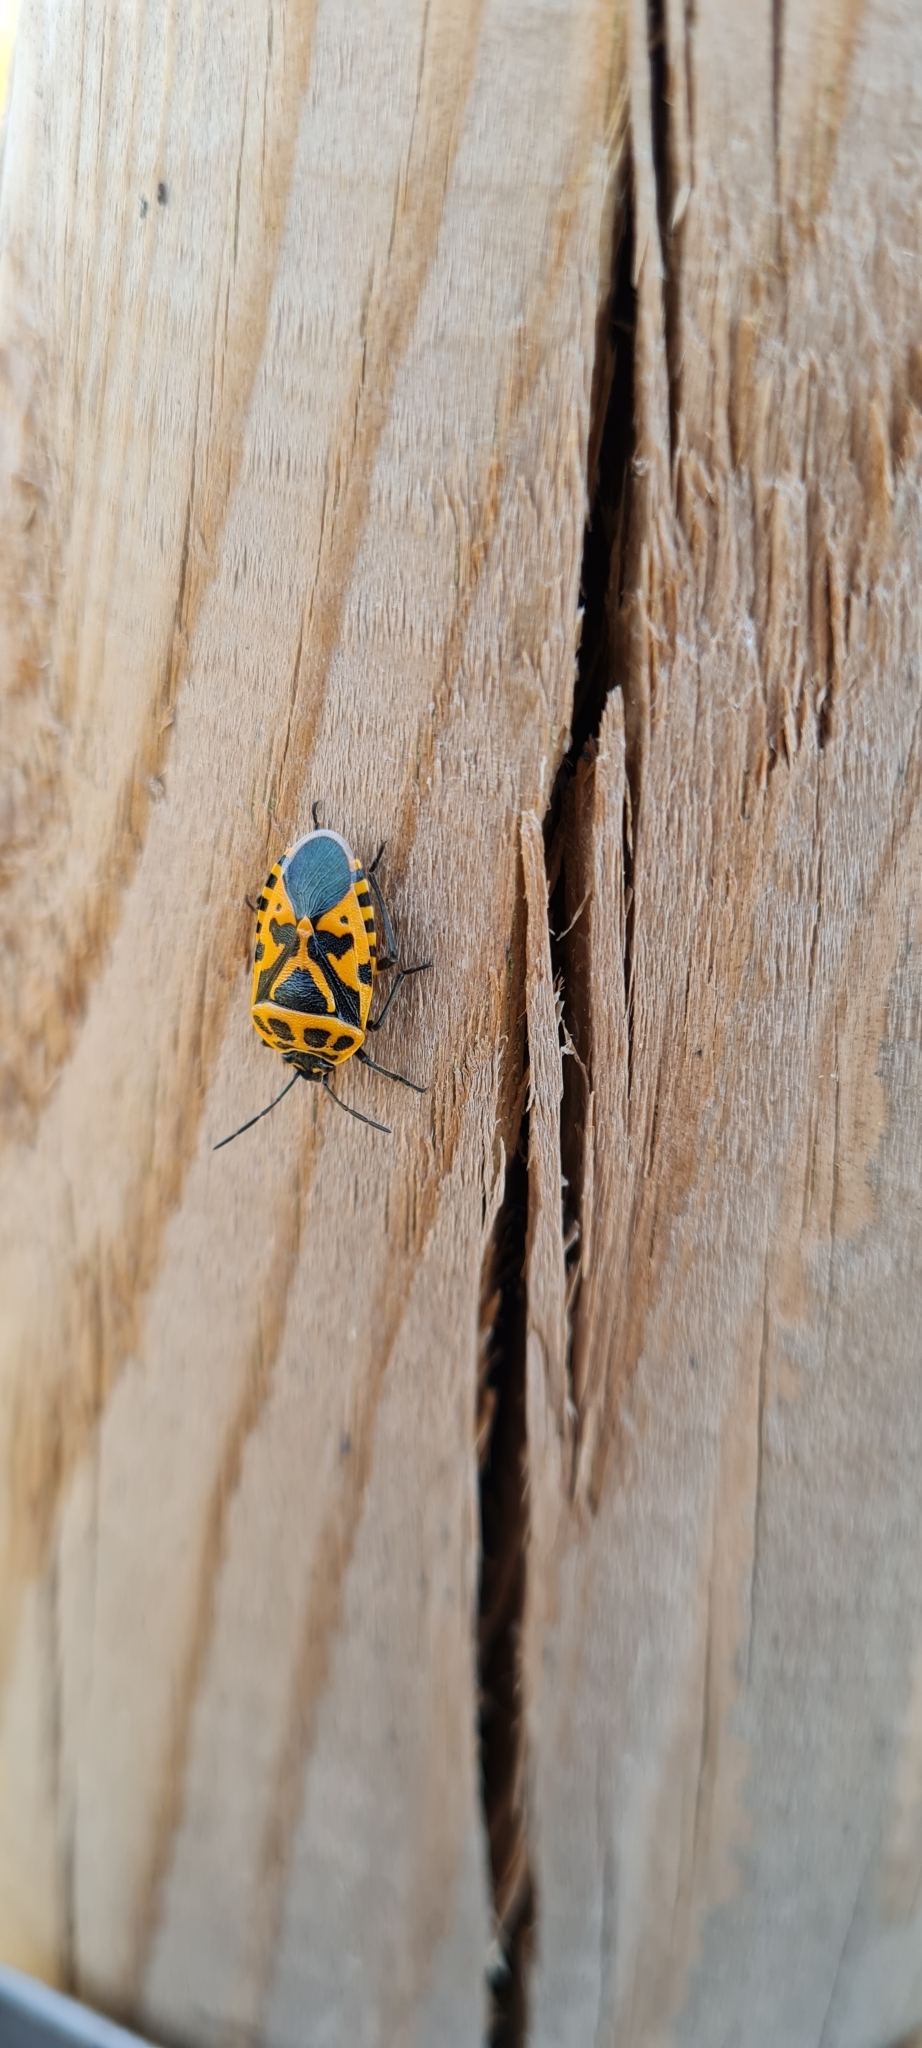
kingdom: Animalia
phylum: Arthropoda
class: Insecta
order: Hemiptera
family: Pentatomidae
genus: Eurydema
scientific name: Eurydema ventralis
